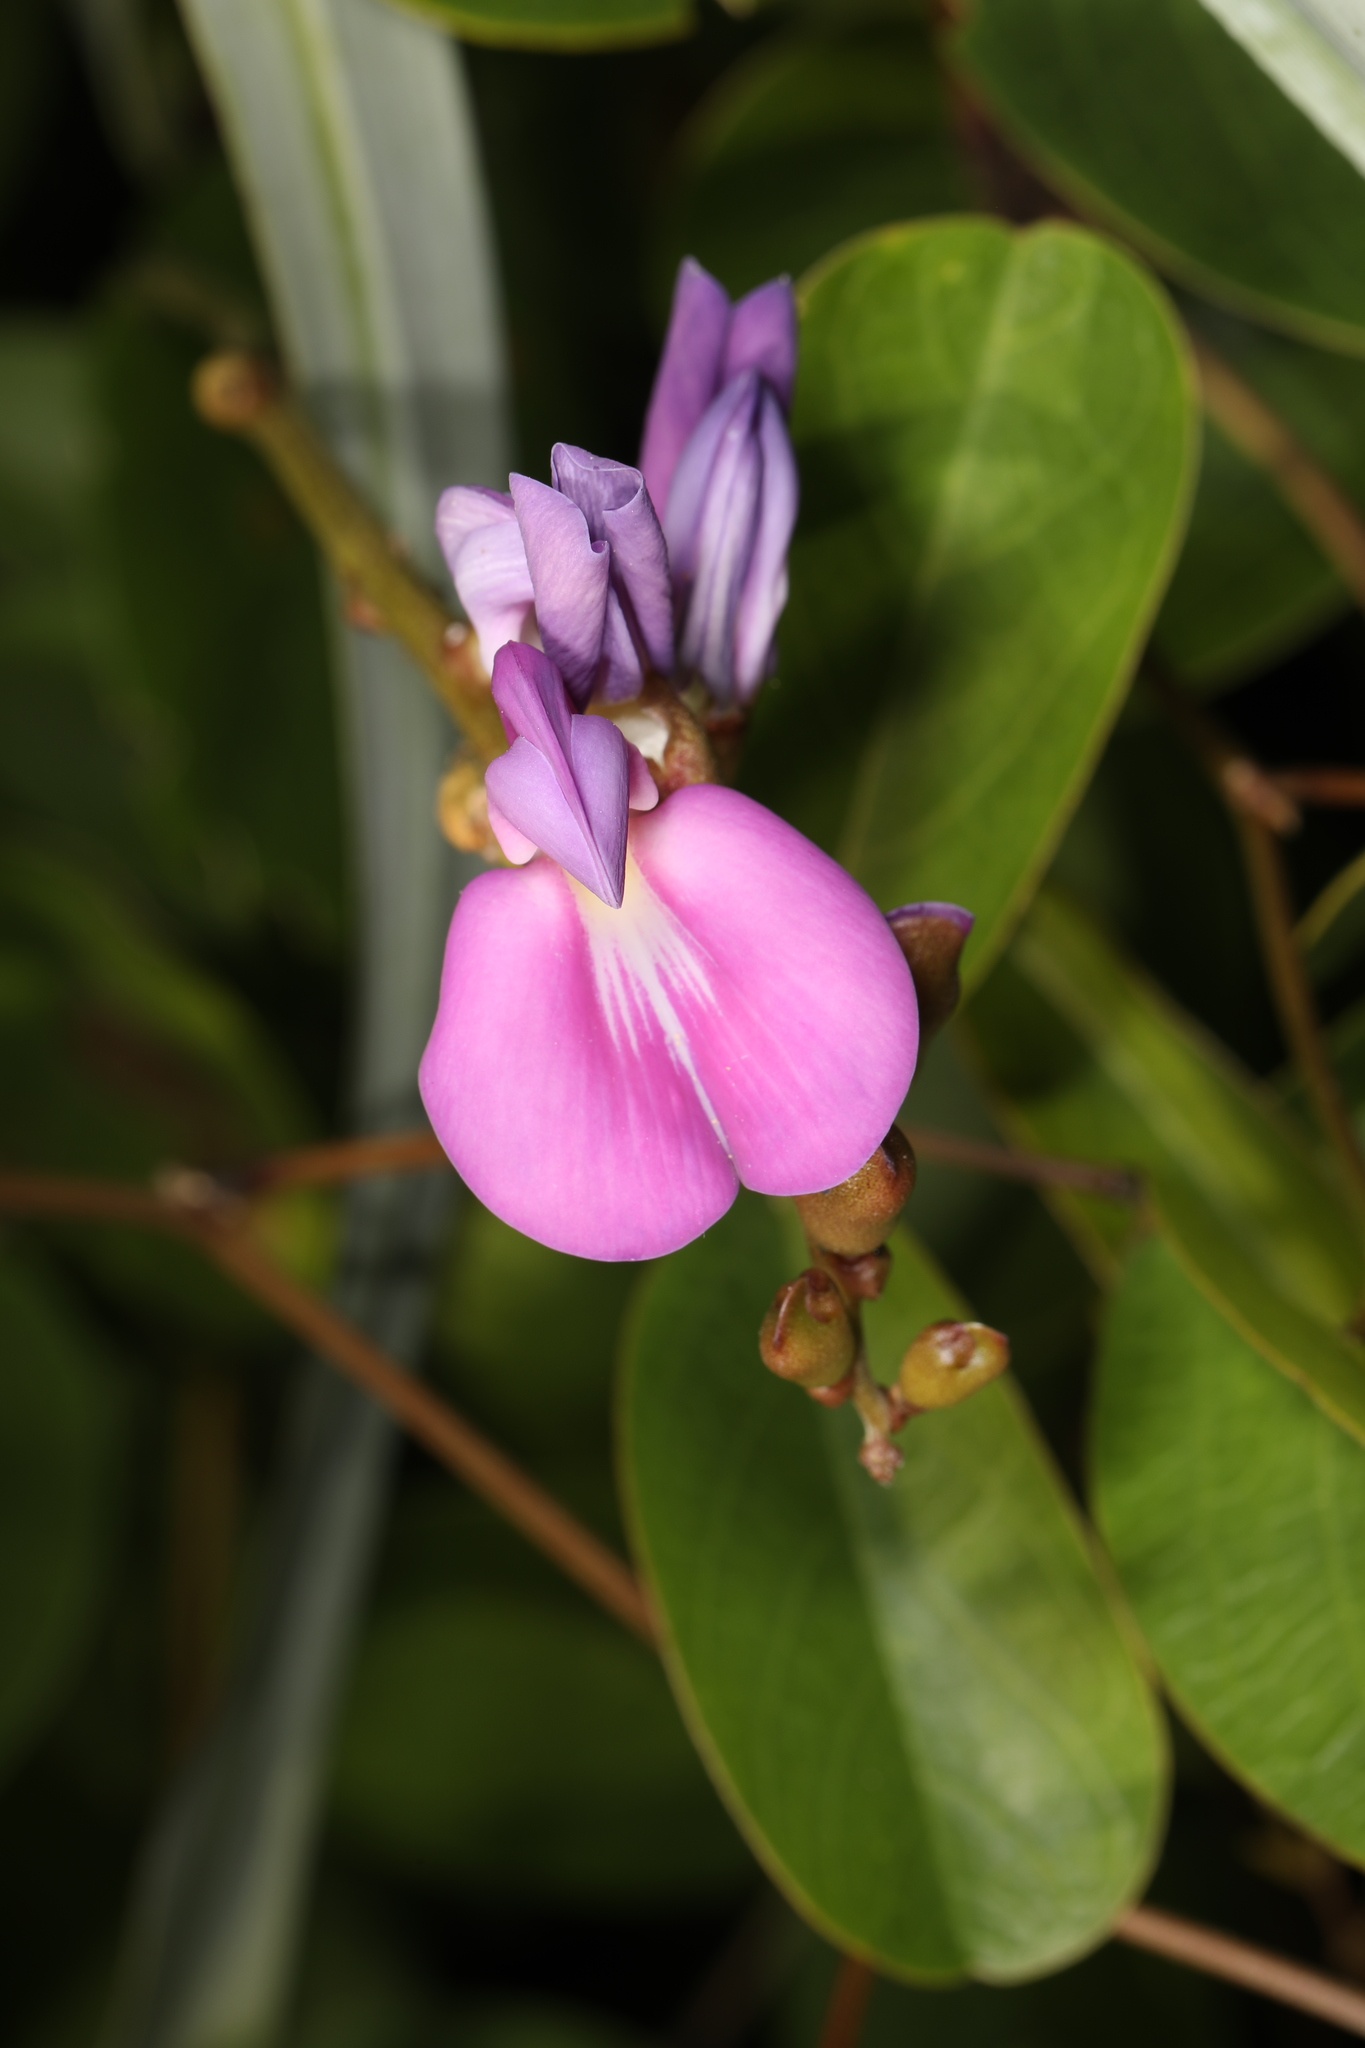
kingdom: Plantae
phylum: Tracheophyta
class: Magnoliopsida
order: Fabales
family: Fabaceae
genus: Canavalia
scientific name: Canavalia rosea
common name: Beach-bean
